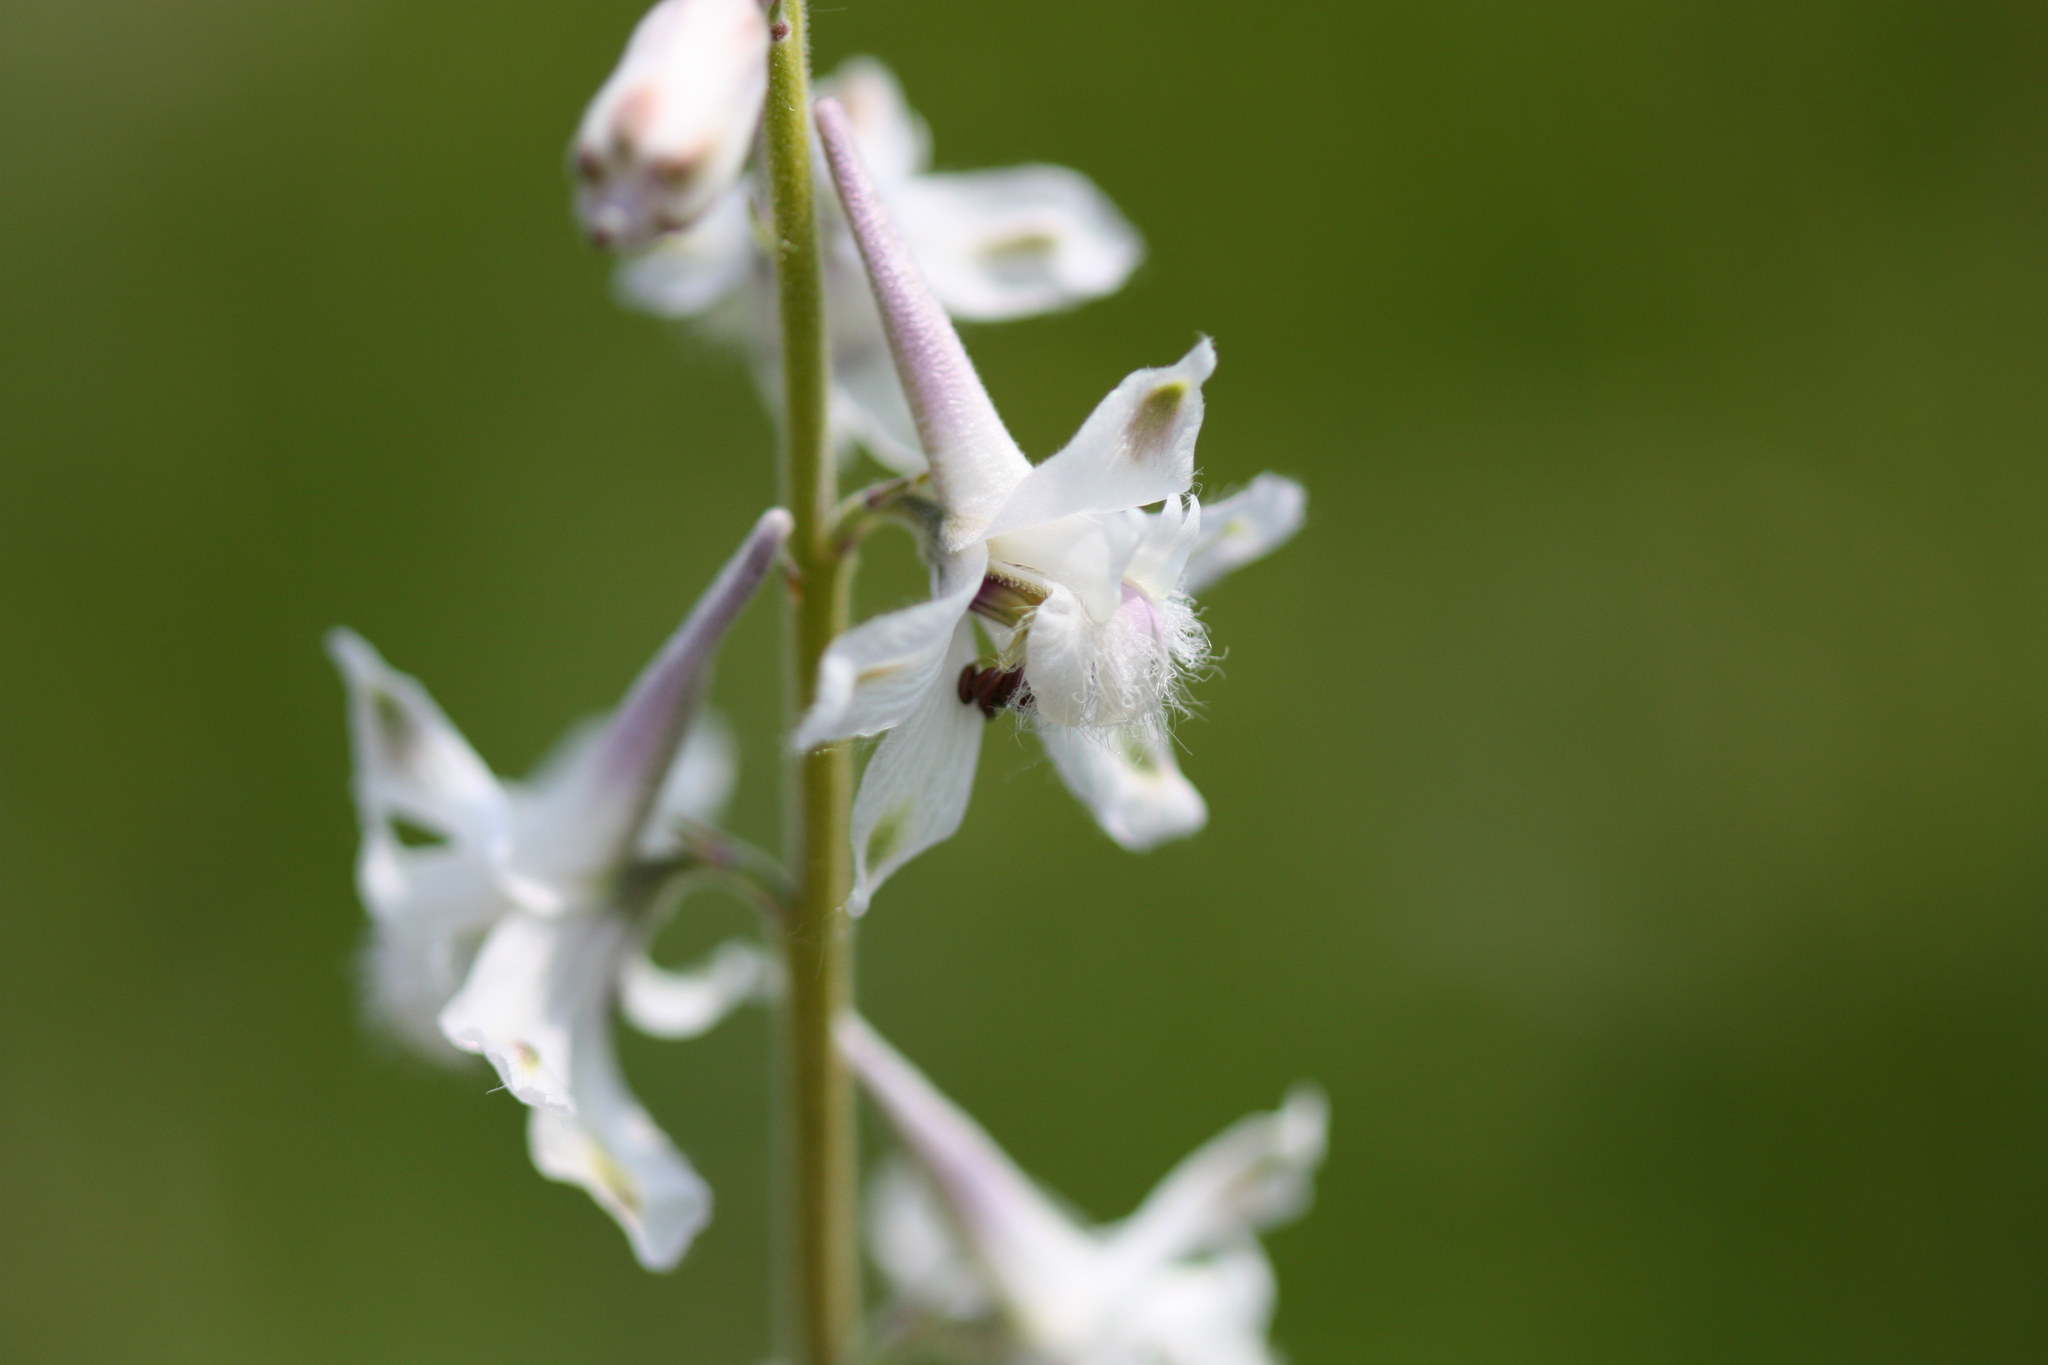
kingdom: Plantae
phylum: Tracheophyta
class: Magnoliopsida
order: Ranunculales
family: Ranunculaceae
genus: Delphinium
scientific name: Delphinium carolinianum
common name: Carolina larkspur
